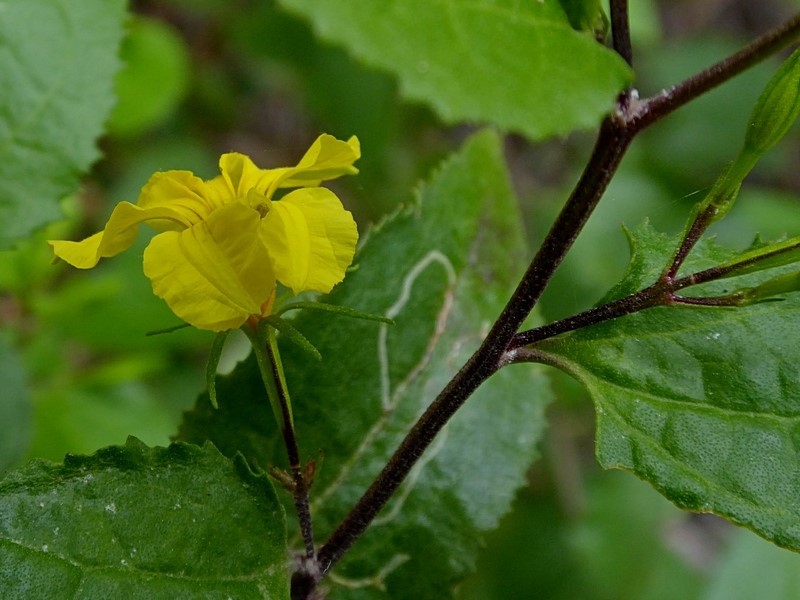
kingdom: Plantae
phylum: Tracheophyta
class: Magnoliopsida
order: Asterales
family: Goodeniaceae
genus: Goodenia
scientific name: Goodenia ovata
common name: Hop goodenia
